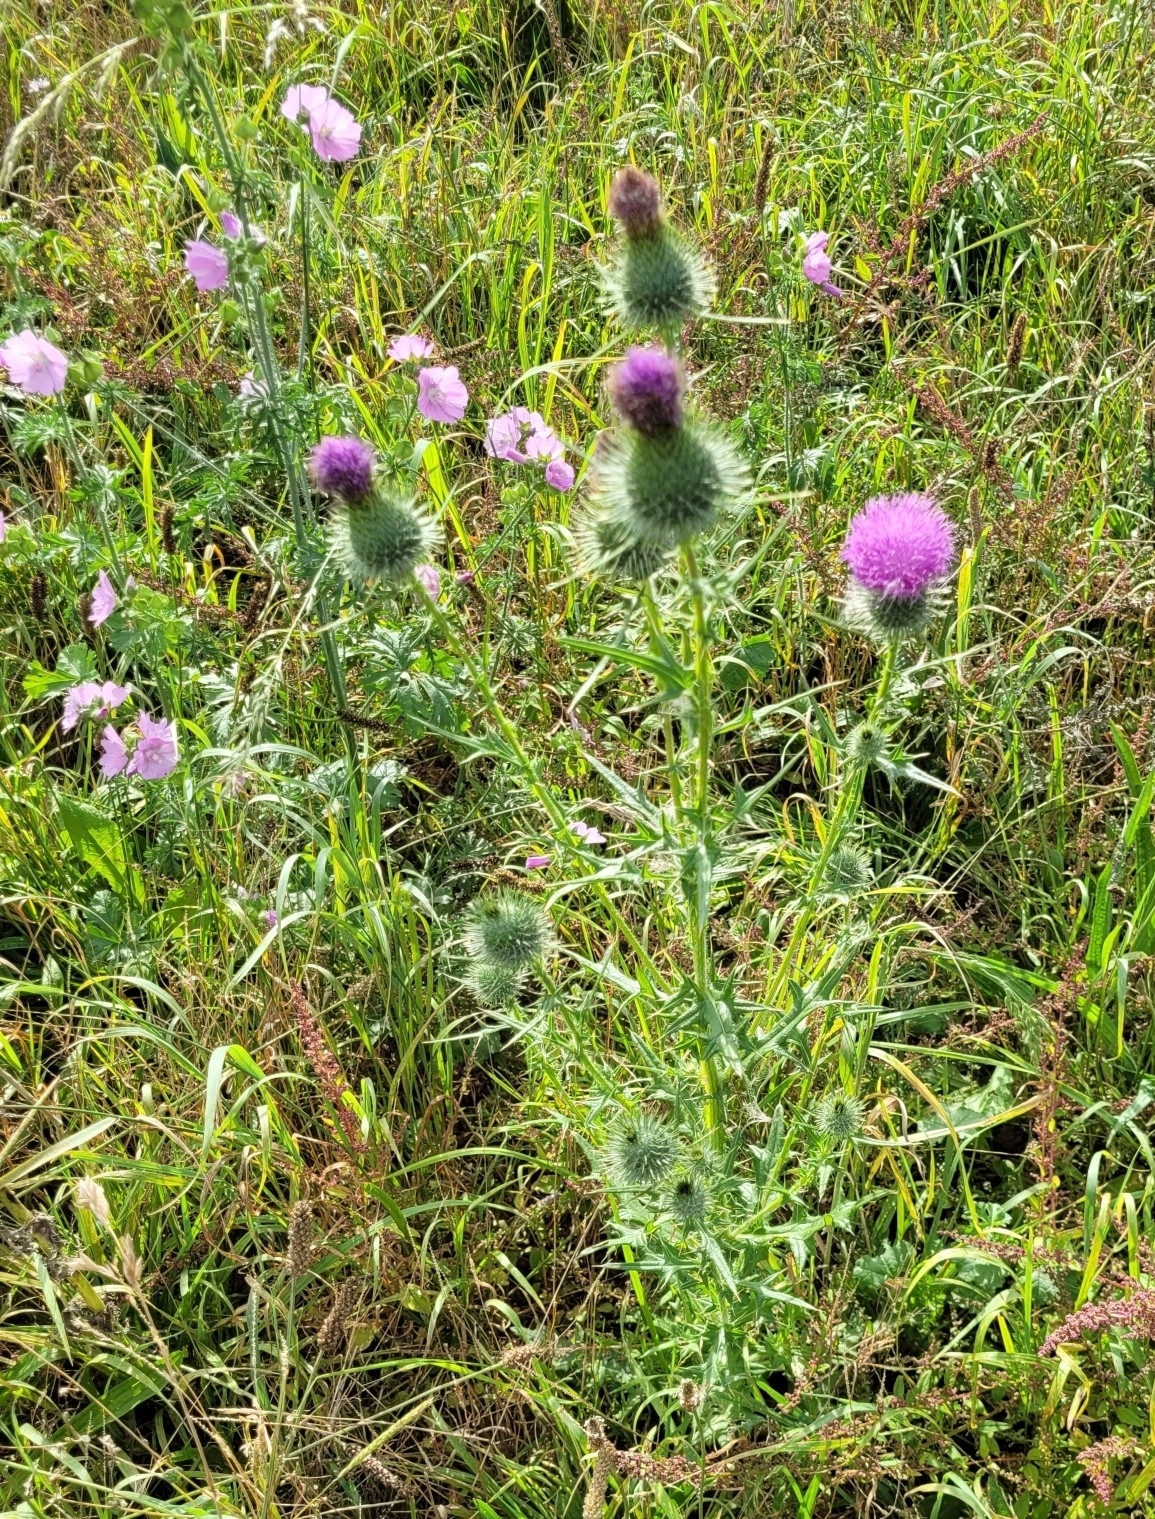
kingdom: Plantae
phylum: Tracheophyta
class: Magnoliopsida
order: Asterales
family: Asteraceae
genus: Cirsium
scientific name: Cirsium vulgare
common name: Bull thistle
